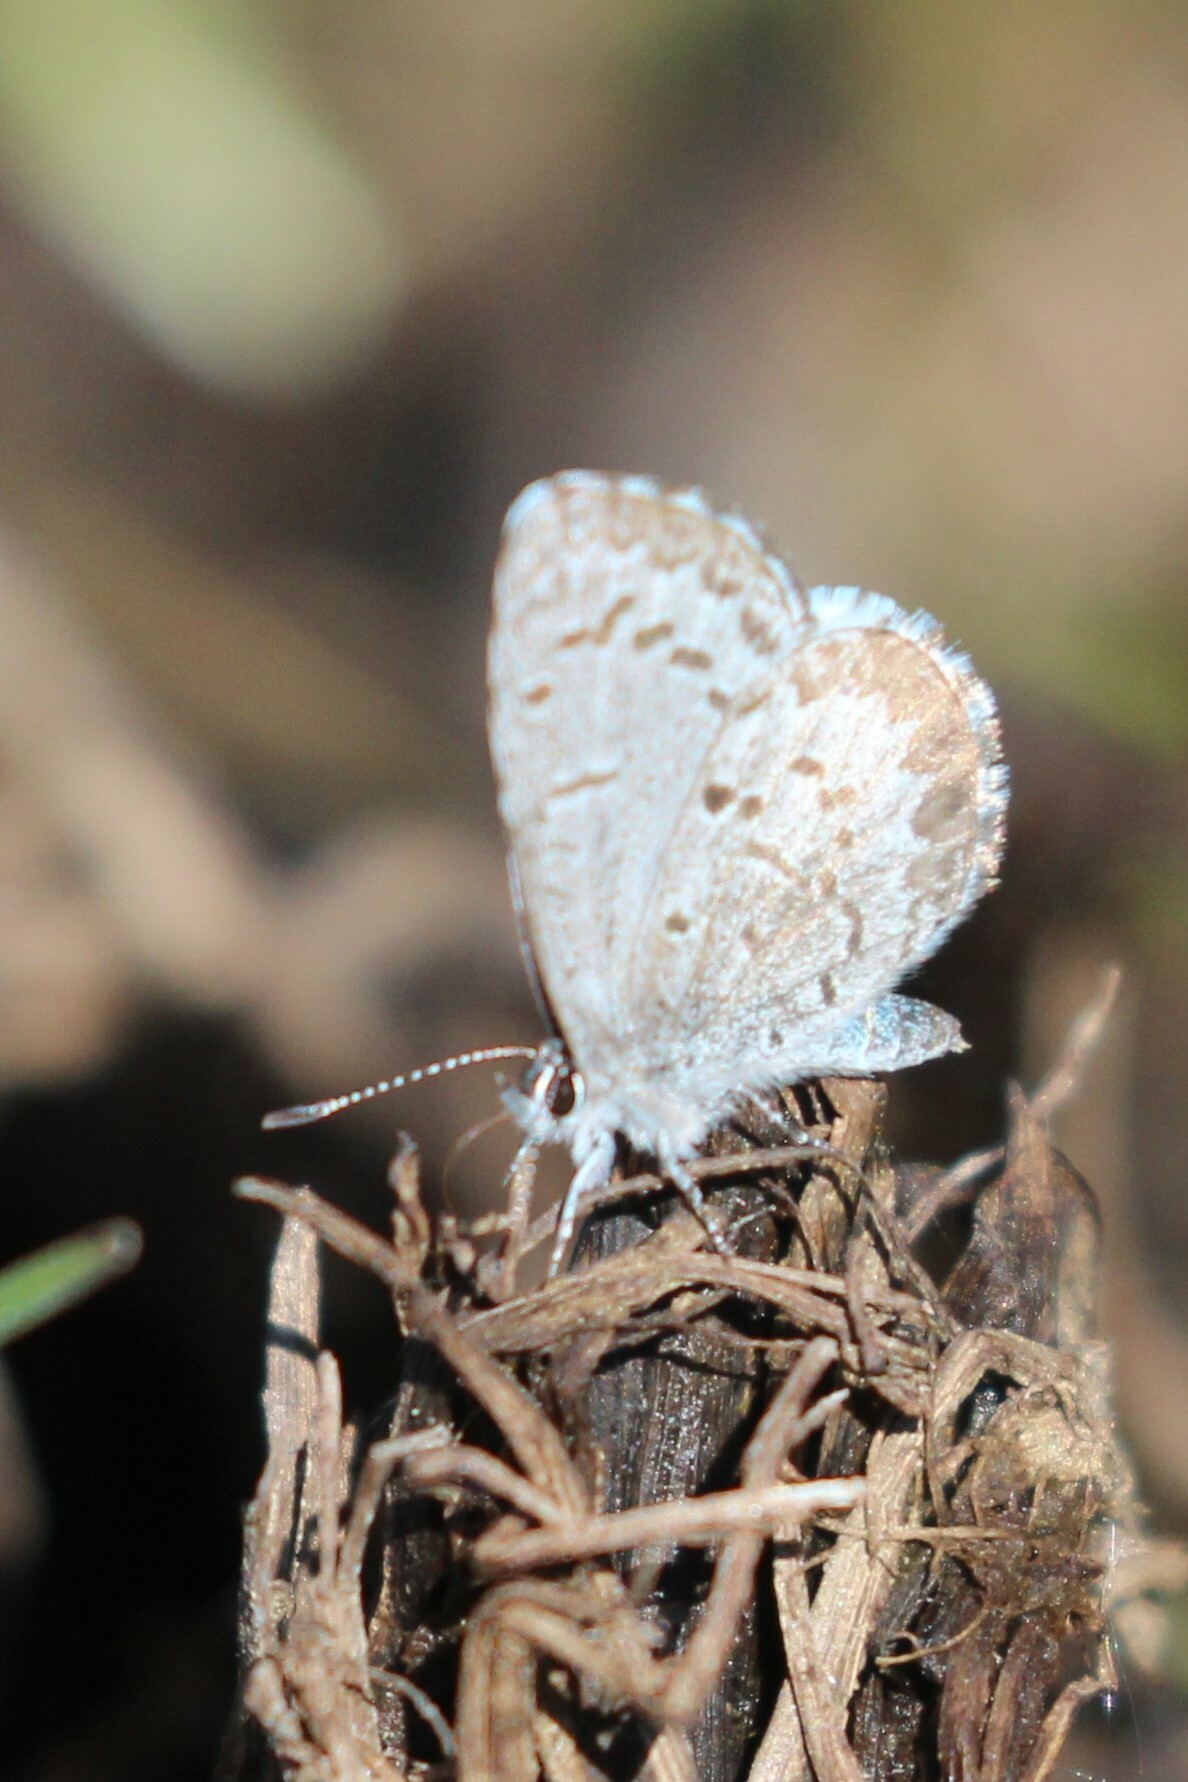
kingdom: Animalia
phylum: Arthropoda
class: Insecta
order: Lepidoptera
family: Lycaenidae
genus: Celastrina
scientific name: Celastrina lucia
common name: Lucia azure
